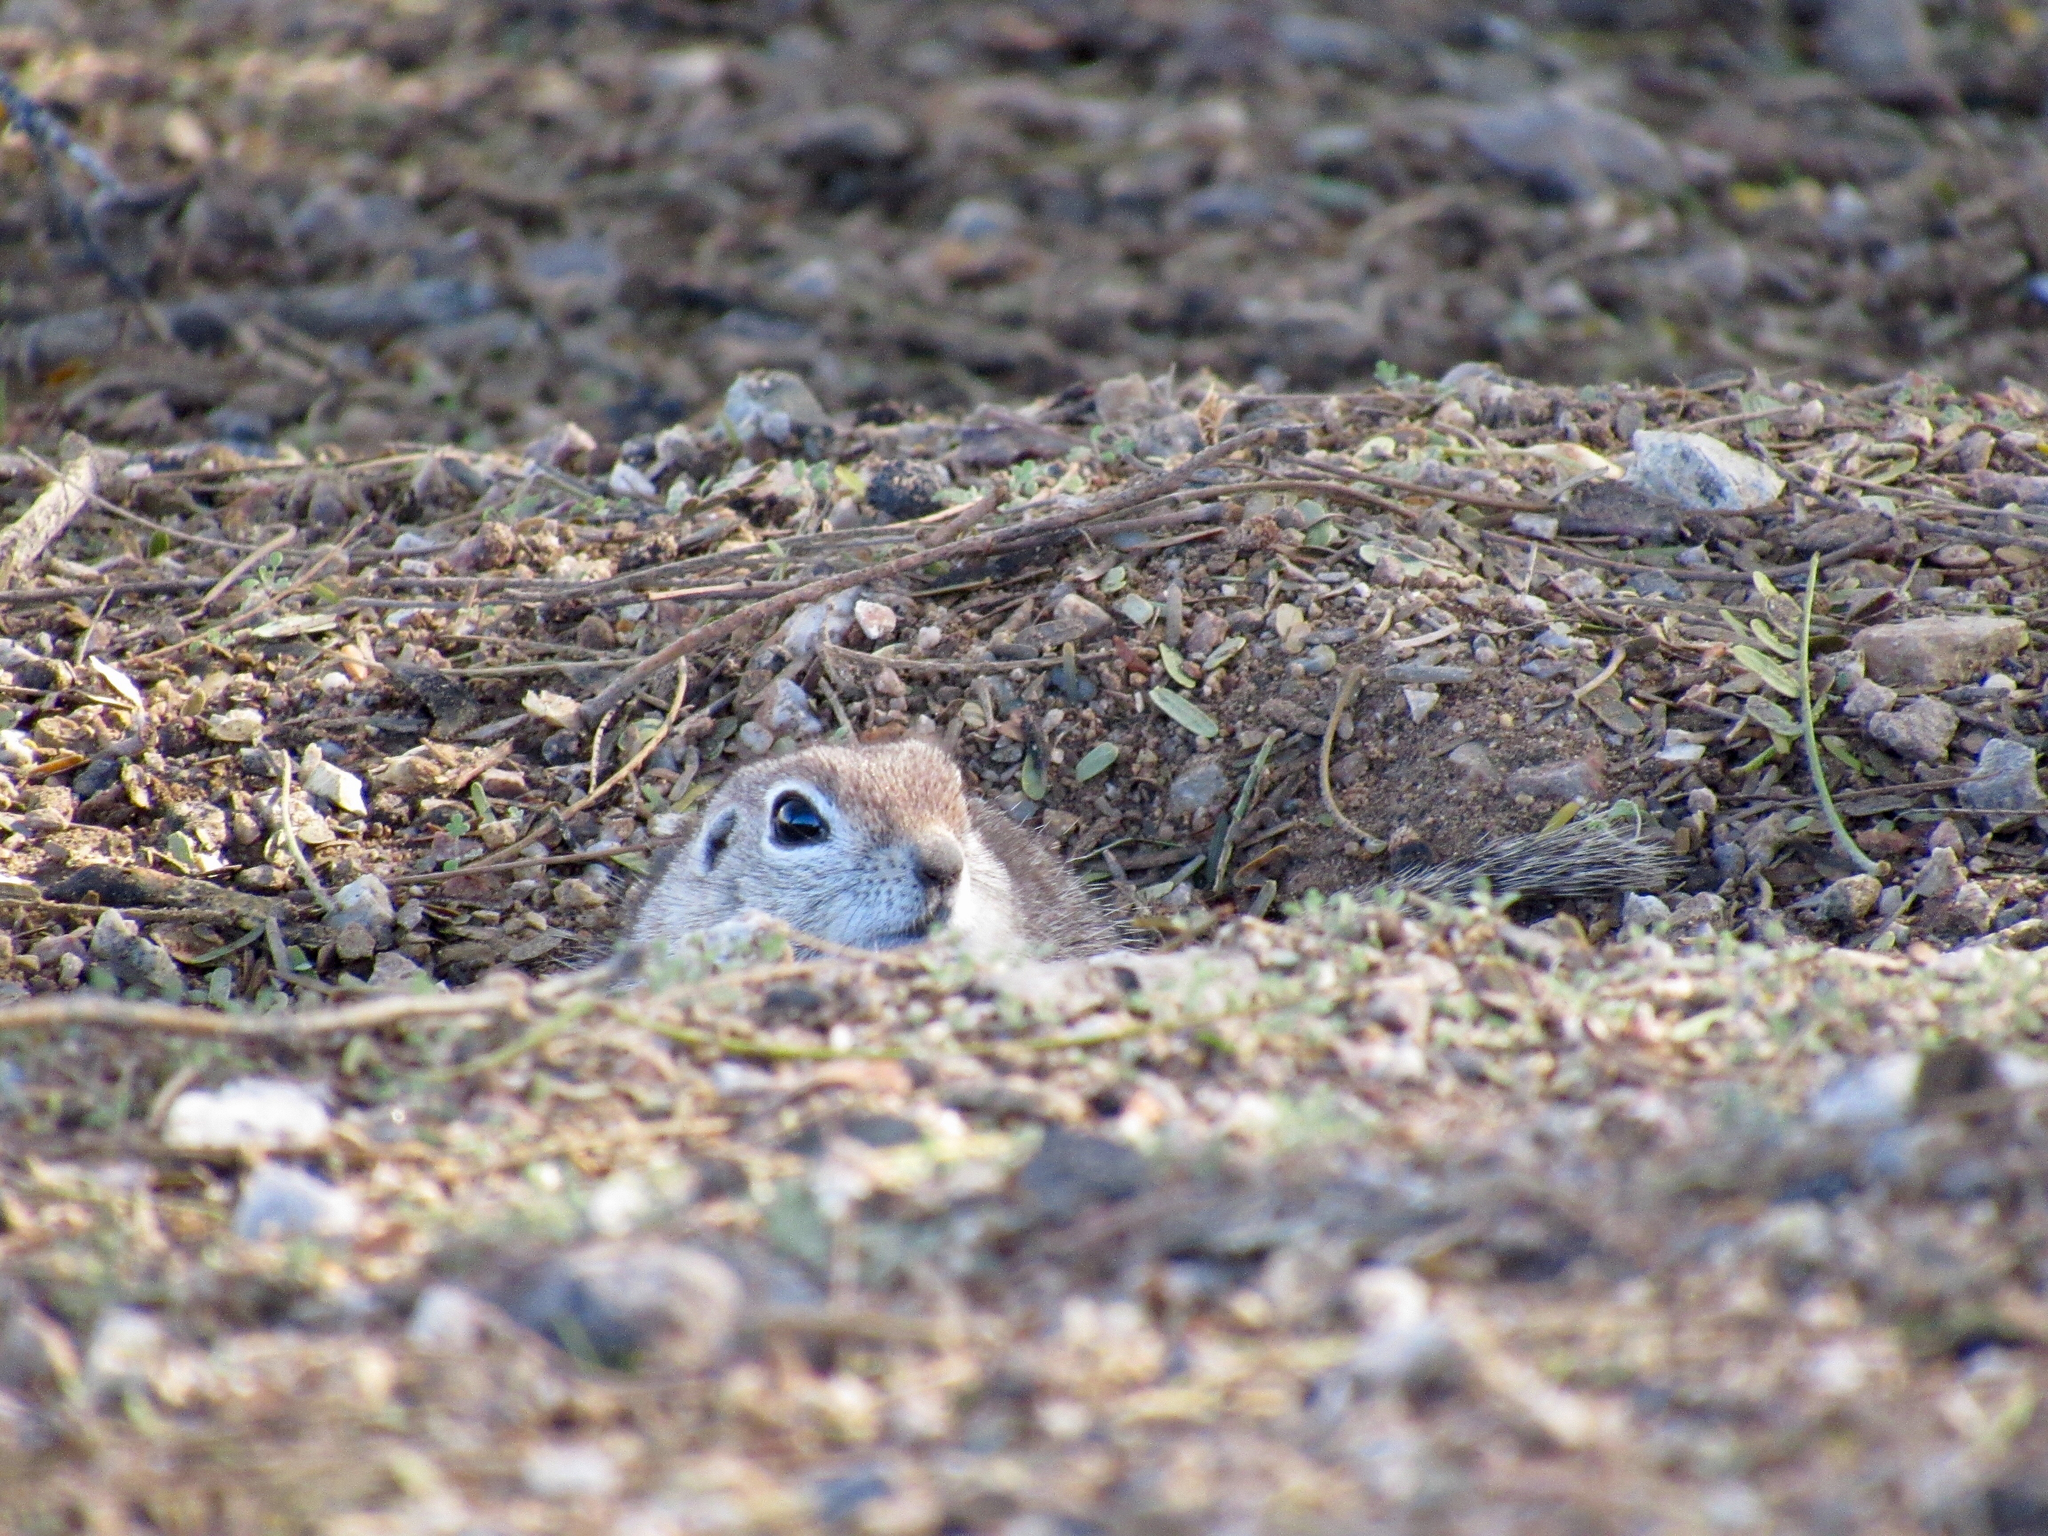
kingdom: Animalia
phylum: Chordata
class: Mammalia
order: Rodentia
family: Sciuridae
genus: Xerospermophilus
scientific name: Xerospermophilus tereticaudus
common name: Round-tailed ground squirrel
